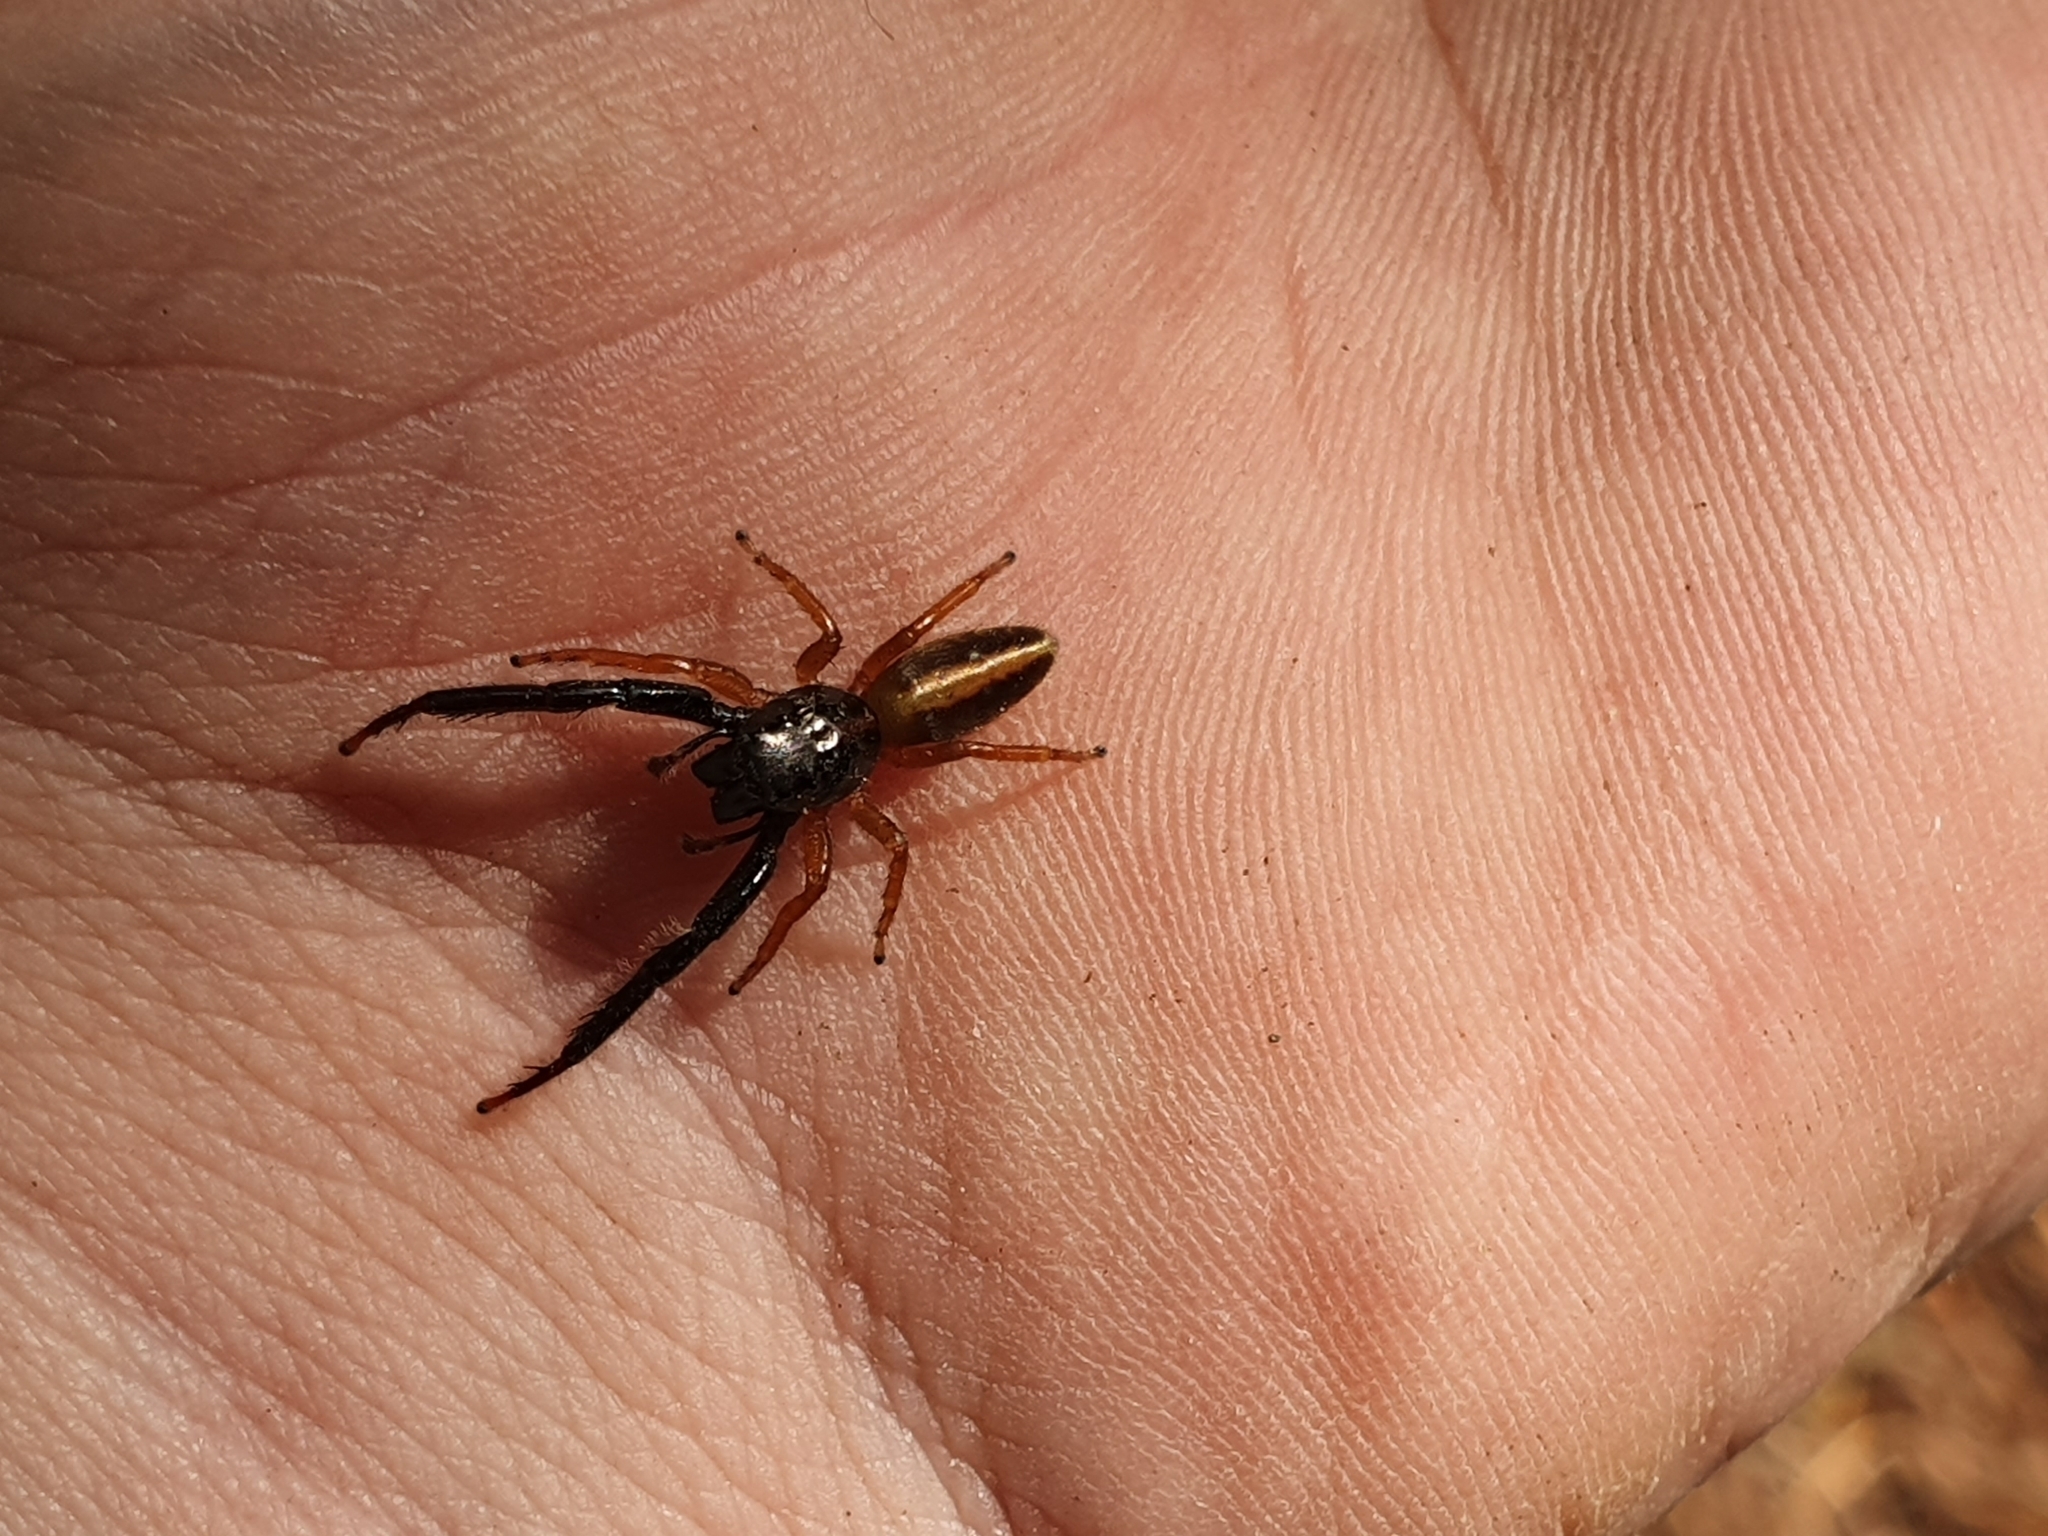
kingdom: Animalia
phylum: Arthropoda
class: Arachnida
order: Araneae
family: Salticidae
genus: Trite
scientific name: Trite planiceps
